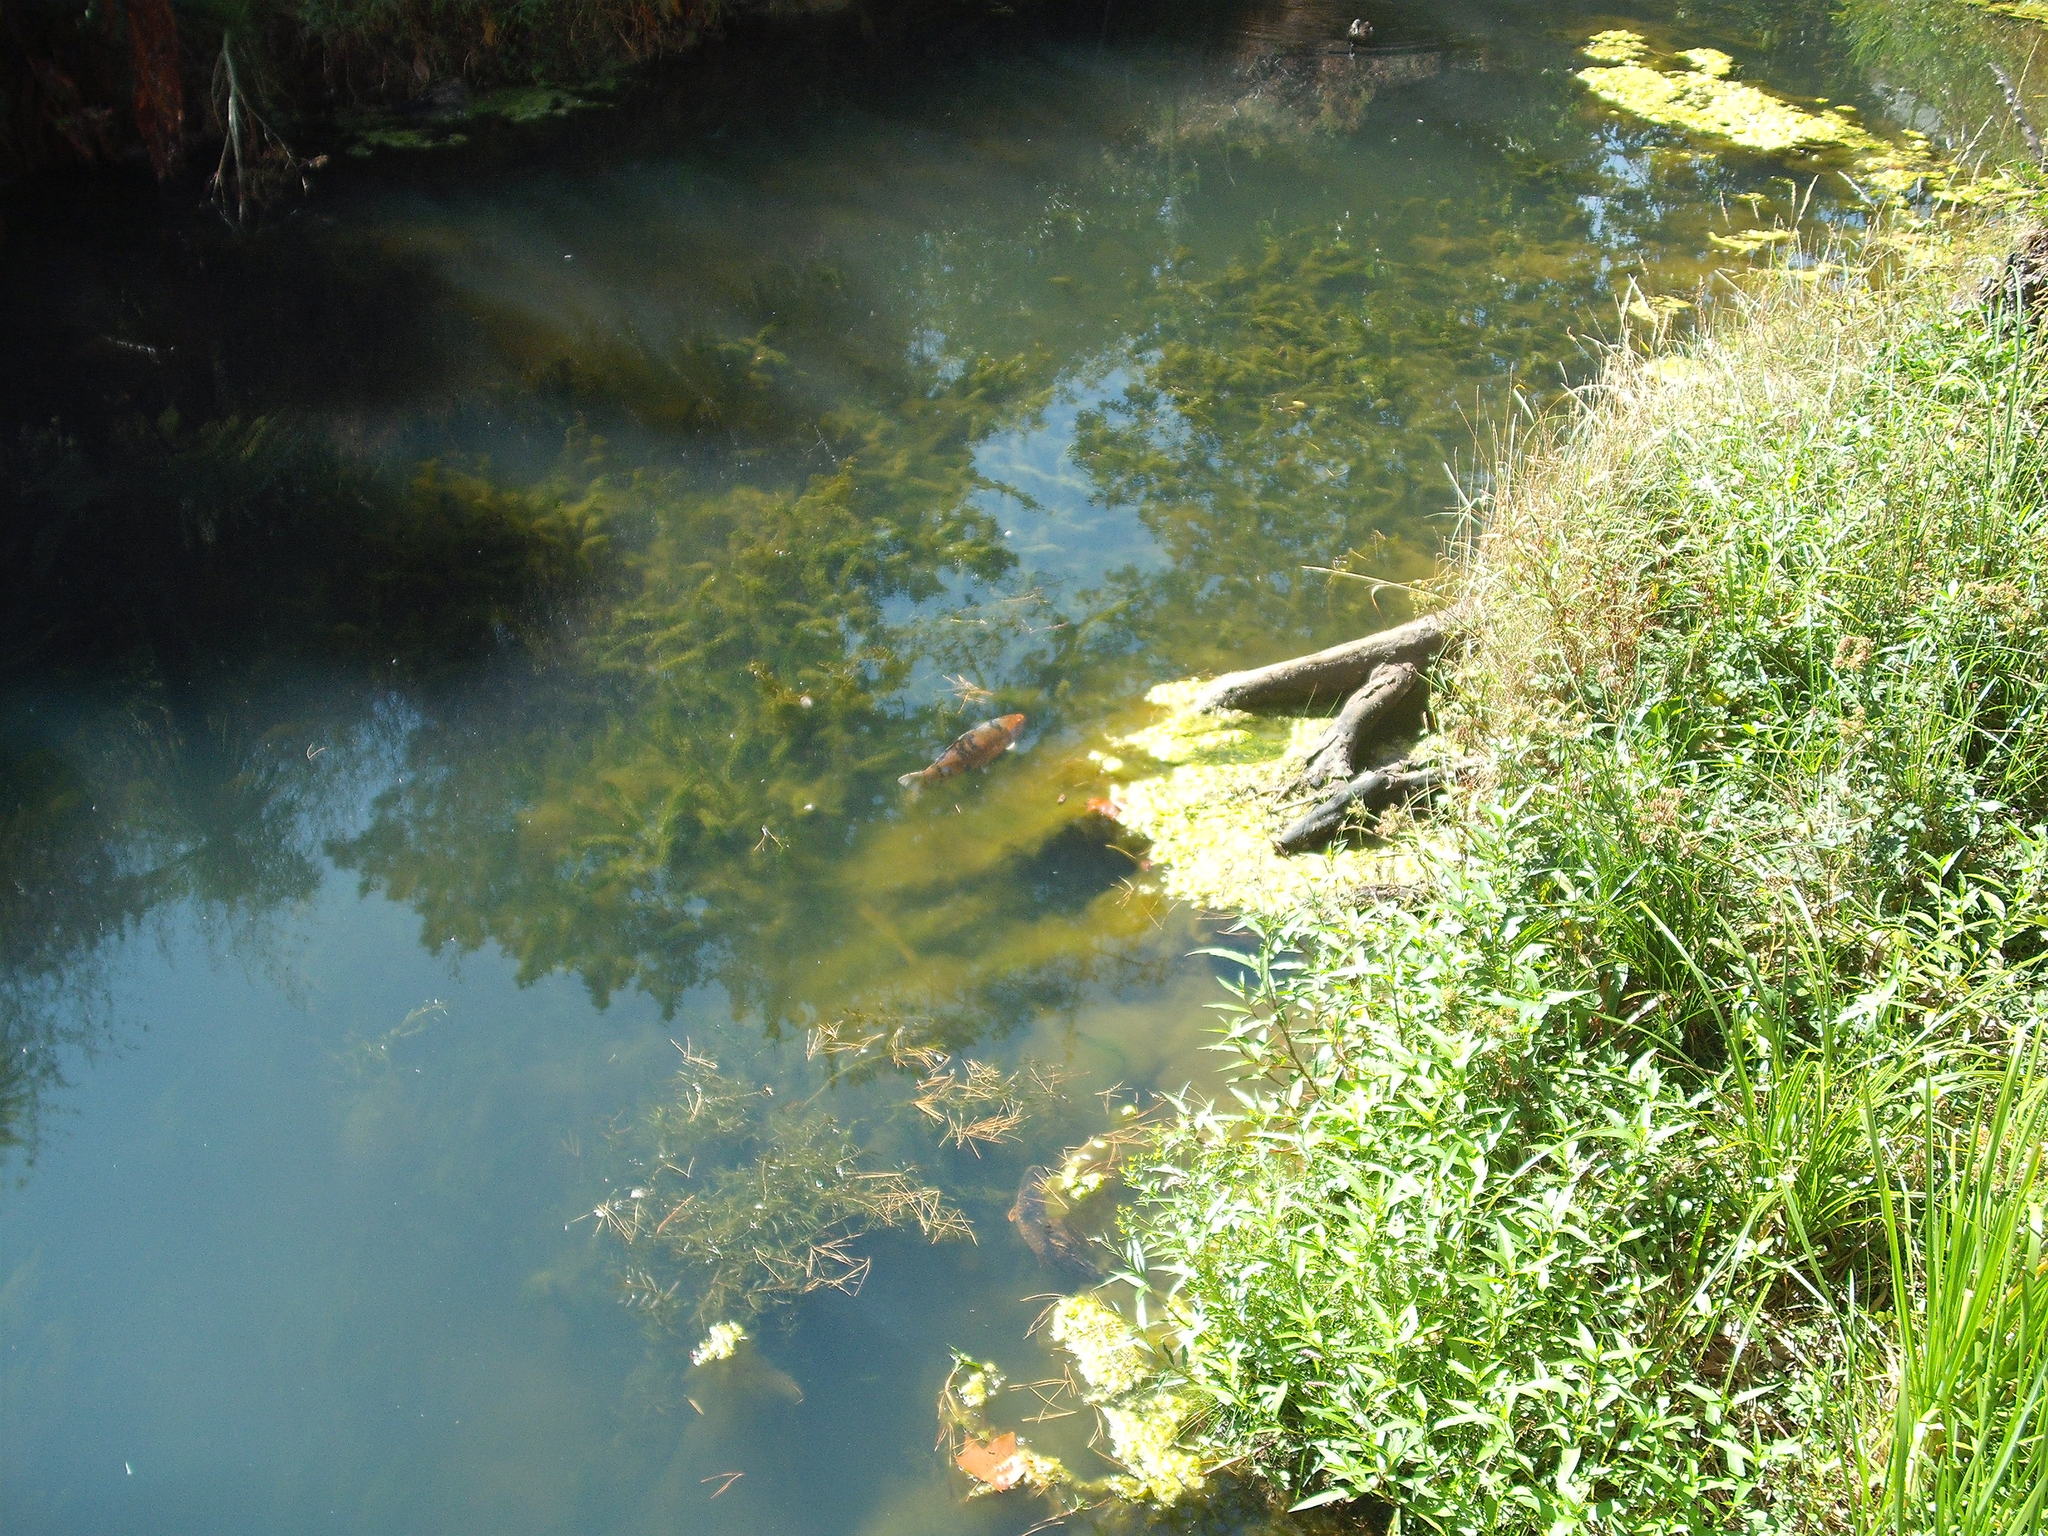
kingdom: Animalia
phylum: Chordata
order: Cypriniformes
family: Cyprinidae
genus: Cyprinus
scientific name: Cyprinus rubrofuscus
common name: Koi
